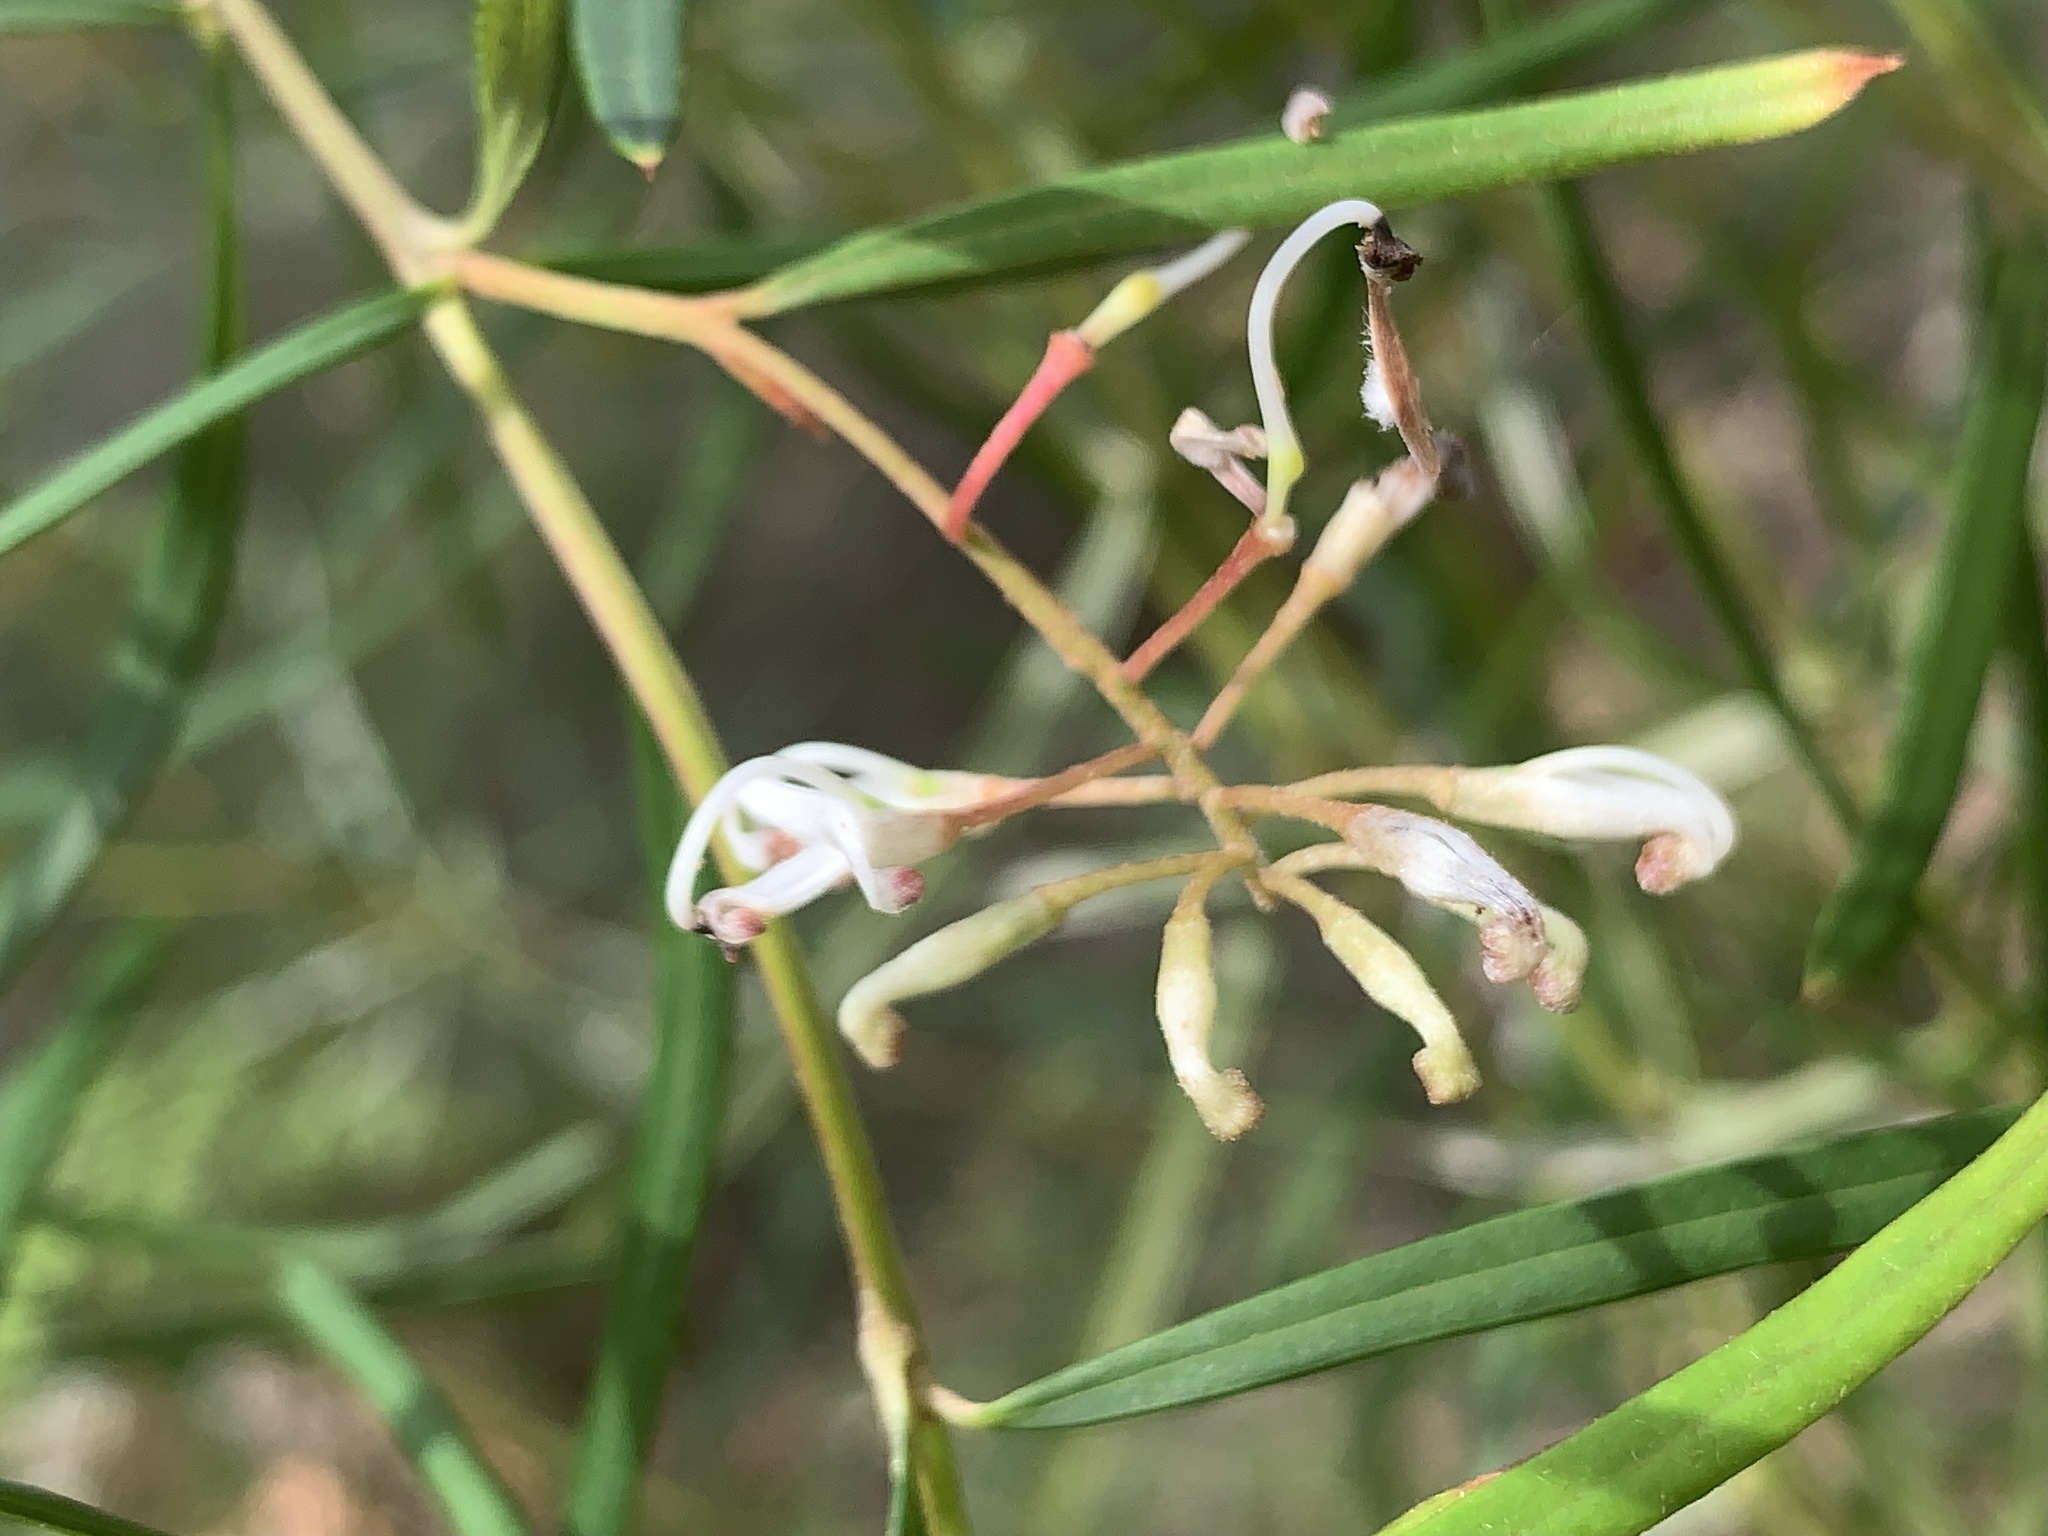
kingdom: Plantae
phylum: Tracheophyta
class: Magnoliopsida
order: Proteales
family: Proteaceae
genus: Grevillea
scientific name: Grevillea linearifolia
